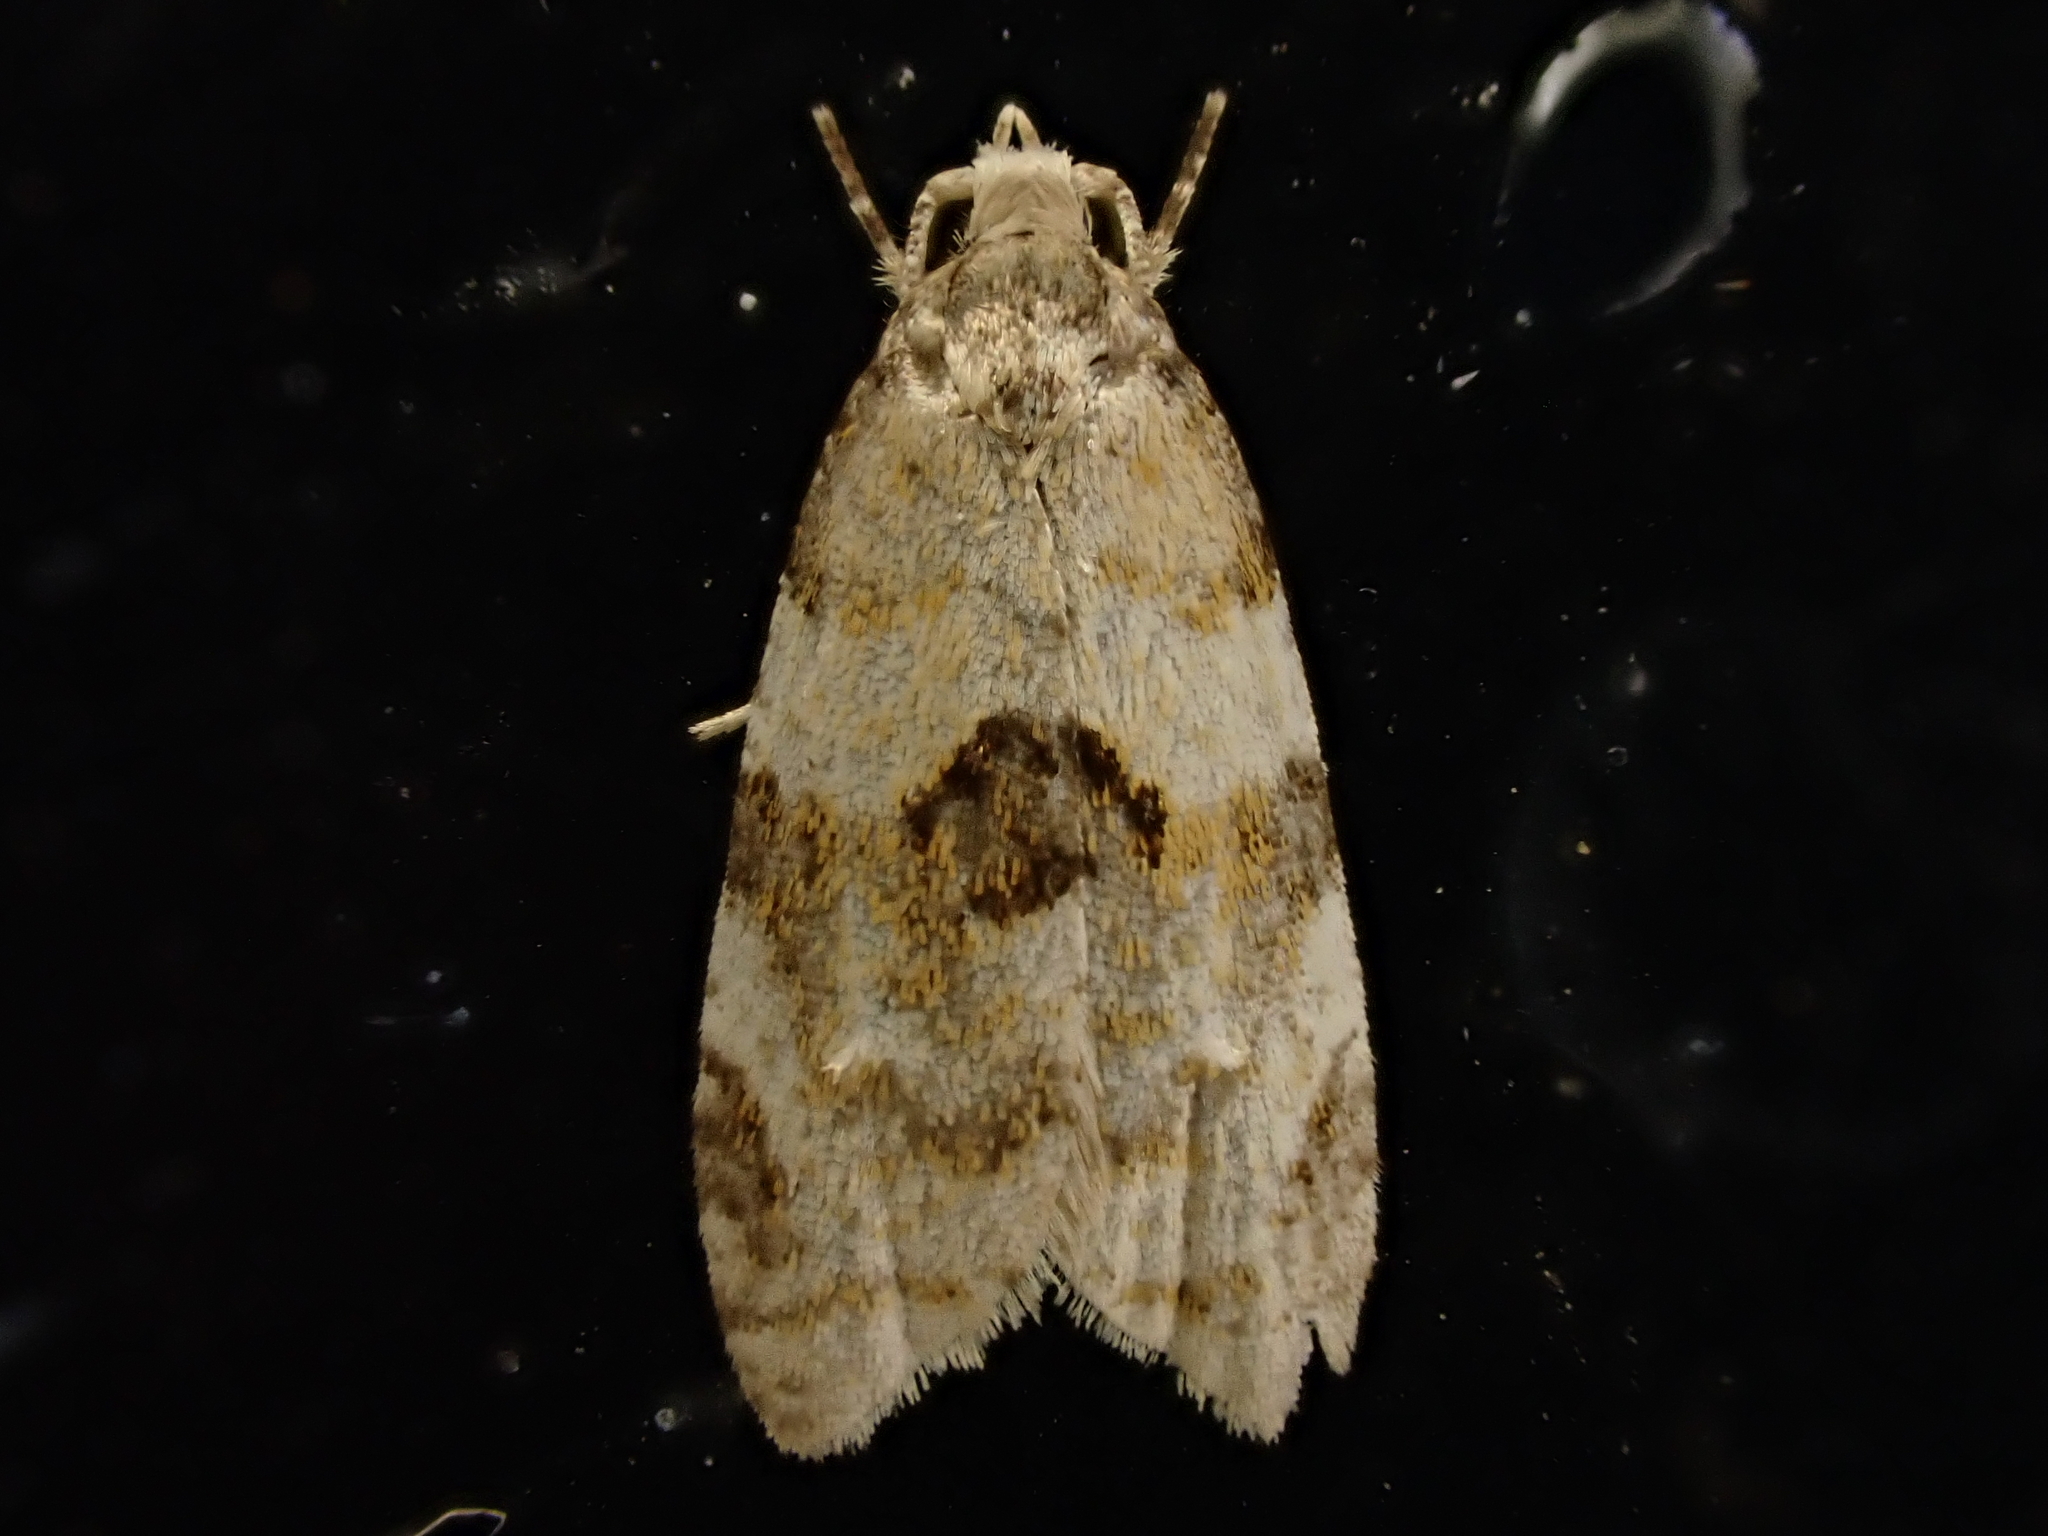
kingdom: Animalia
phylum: Arthropoda
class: Insecta
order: Lepidoptera
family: Tortricidae
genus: Dipterina
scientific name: Dipterina imbriferana
